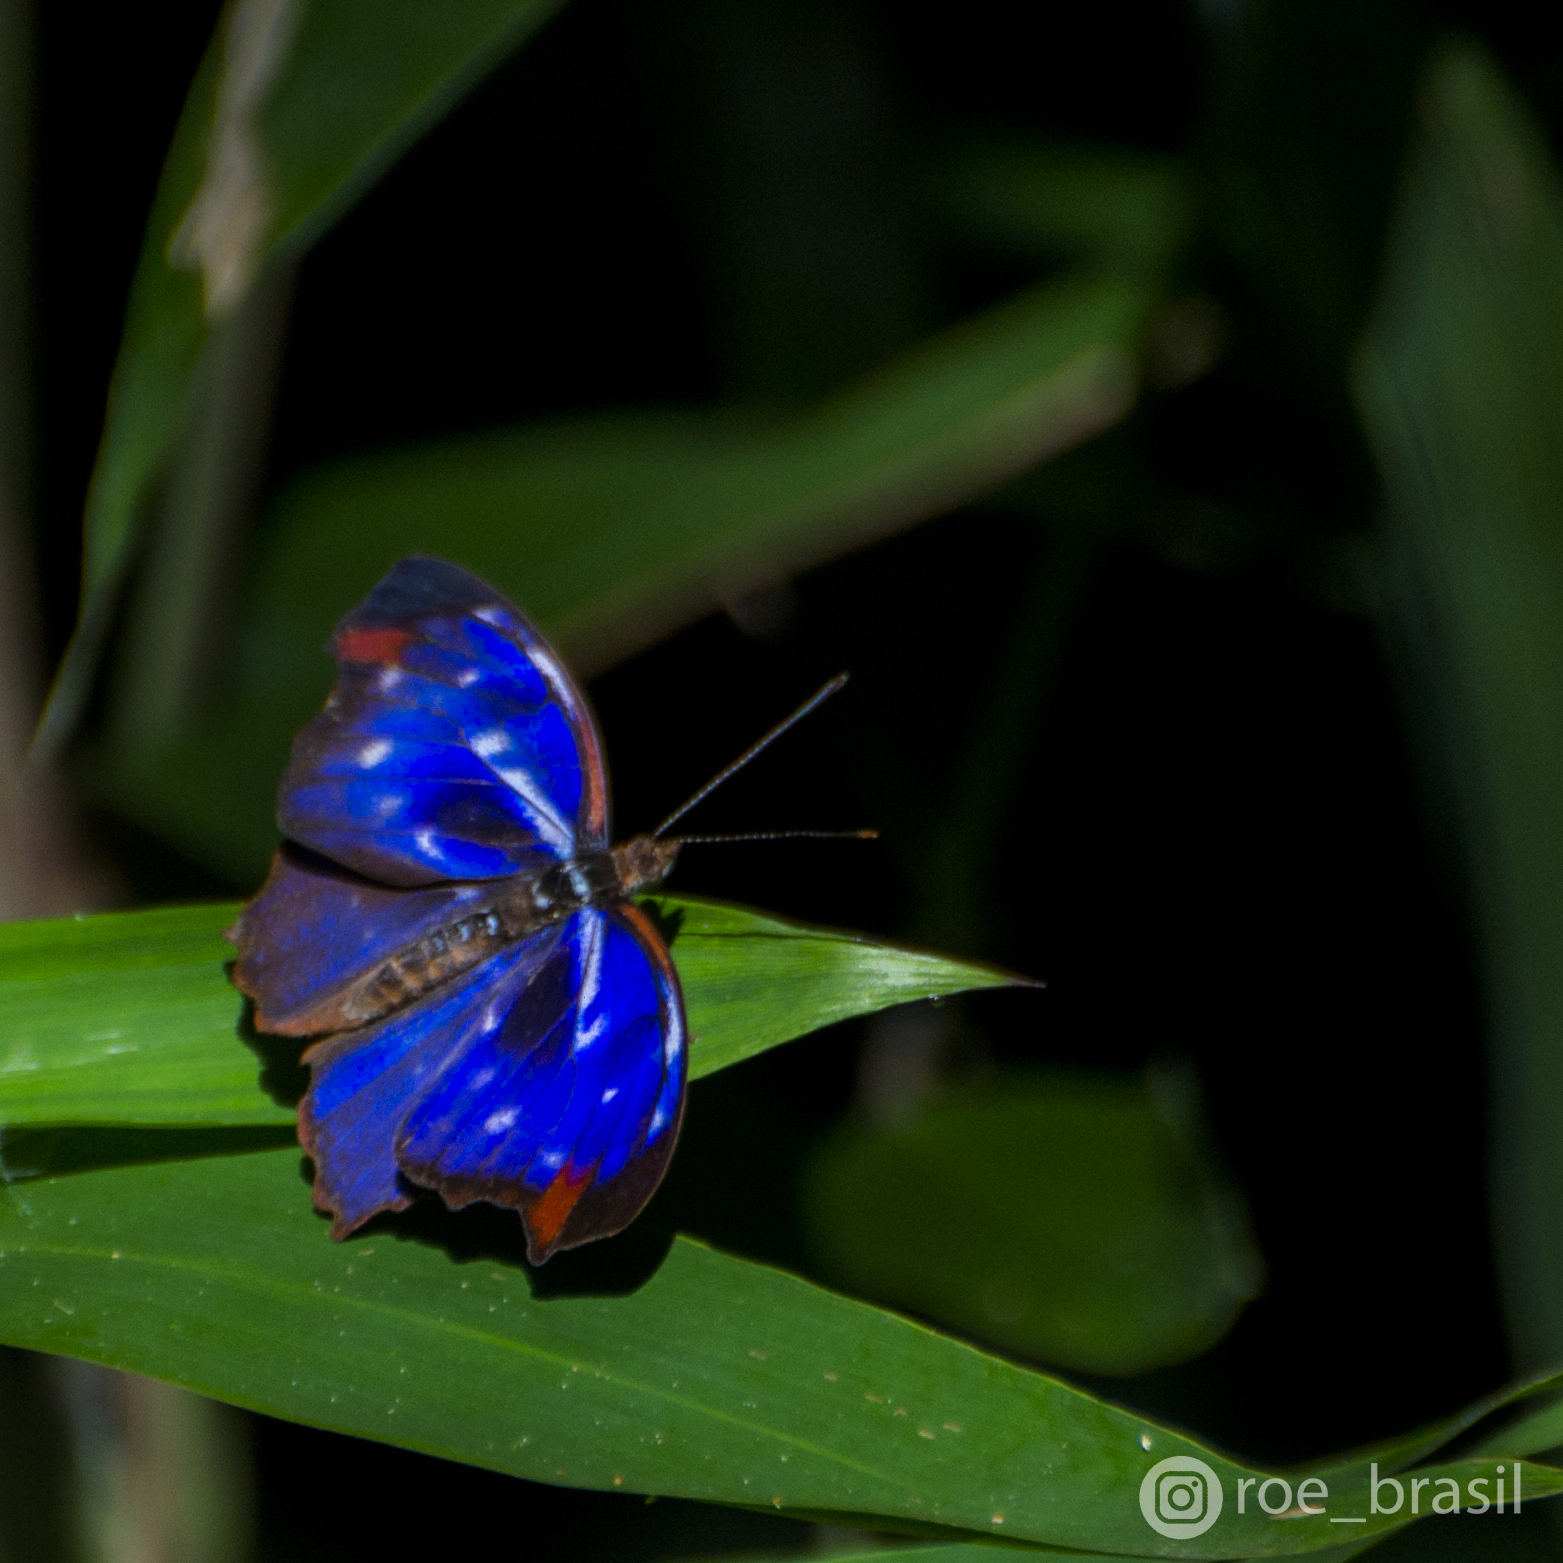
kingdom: Animalia
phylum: Arthropoda
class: Insecta
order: Lepidoptera
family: Nymphalidae
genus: Myscelia
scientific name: Myscelia orsis
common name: Orsis bluewing
